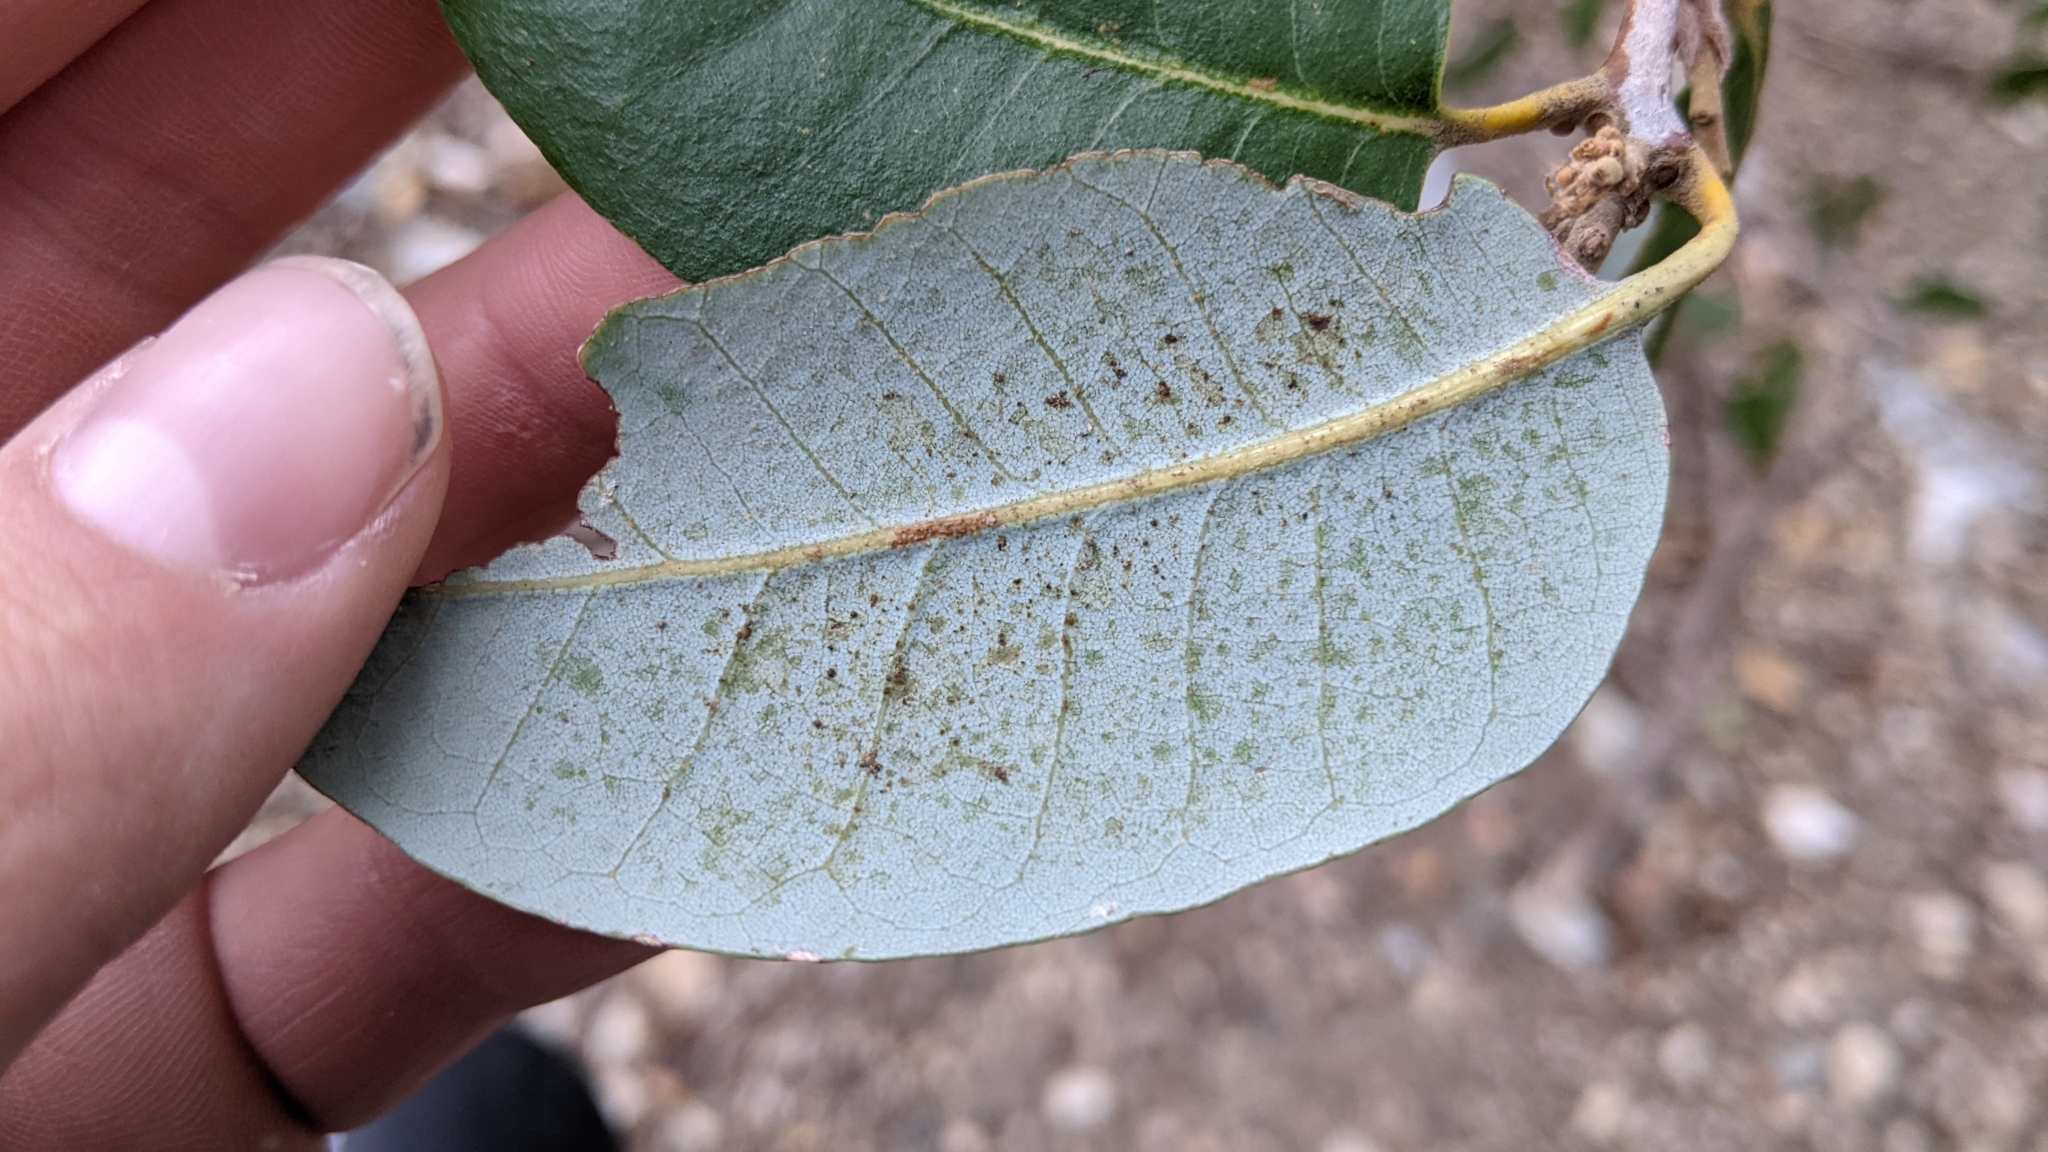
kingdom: Plantae
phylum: Tracheophyta
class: Magnoliopsida
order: Fagales
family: Fagaceae
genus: Quercus
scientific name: Quercus chrysolepis
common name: Canyon live oak
